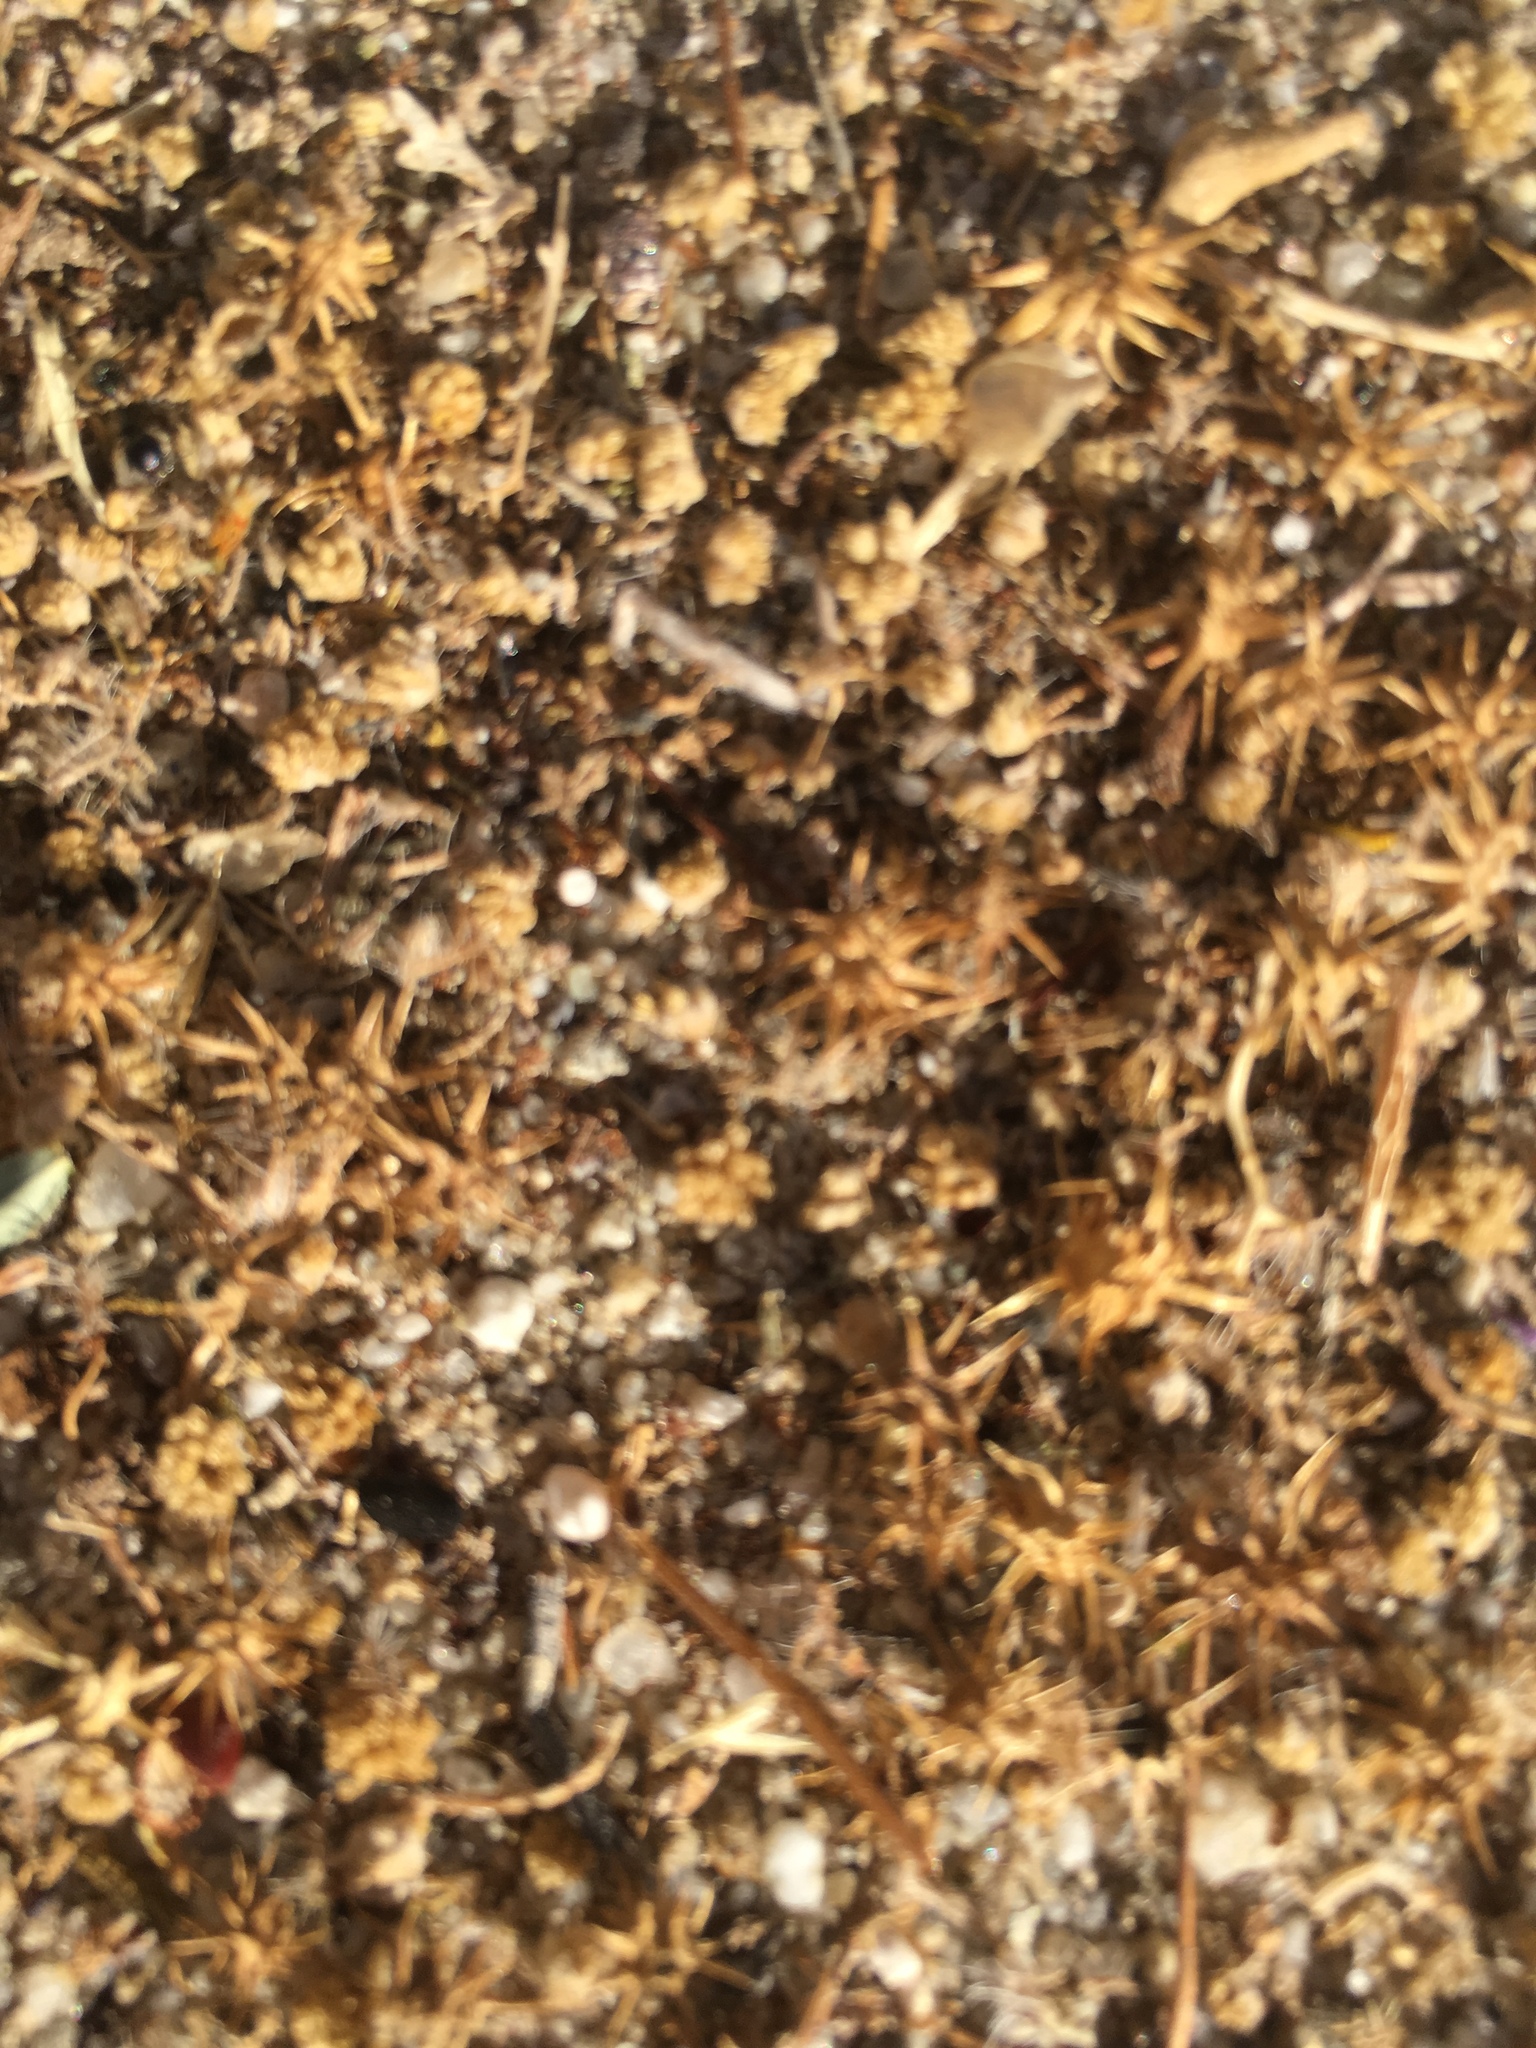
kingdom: Animalia
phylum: Arthropoda
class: Insecta
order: Hymenoptera
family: Formicidae
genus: Messor
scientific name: Messor pergandei
